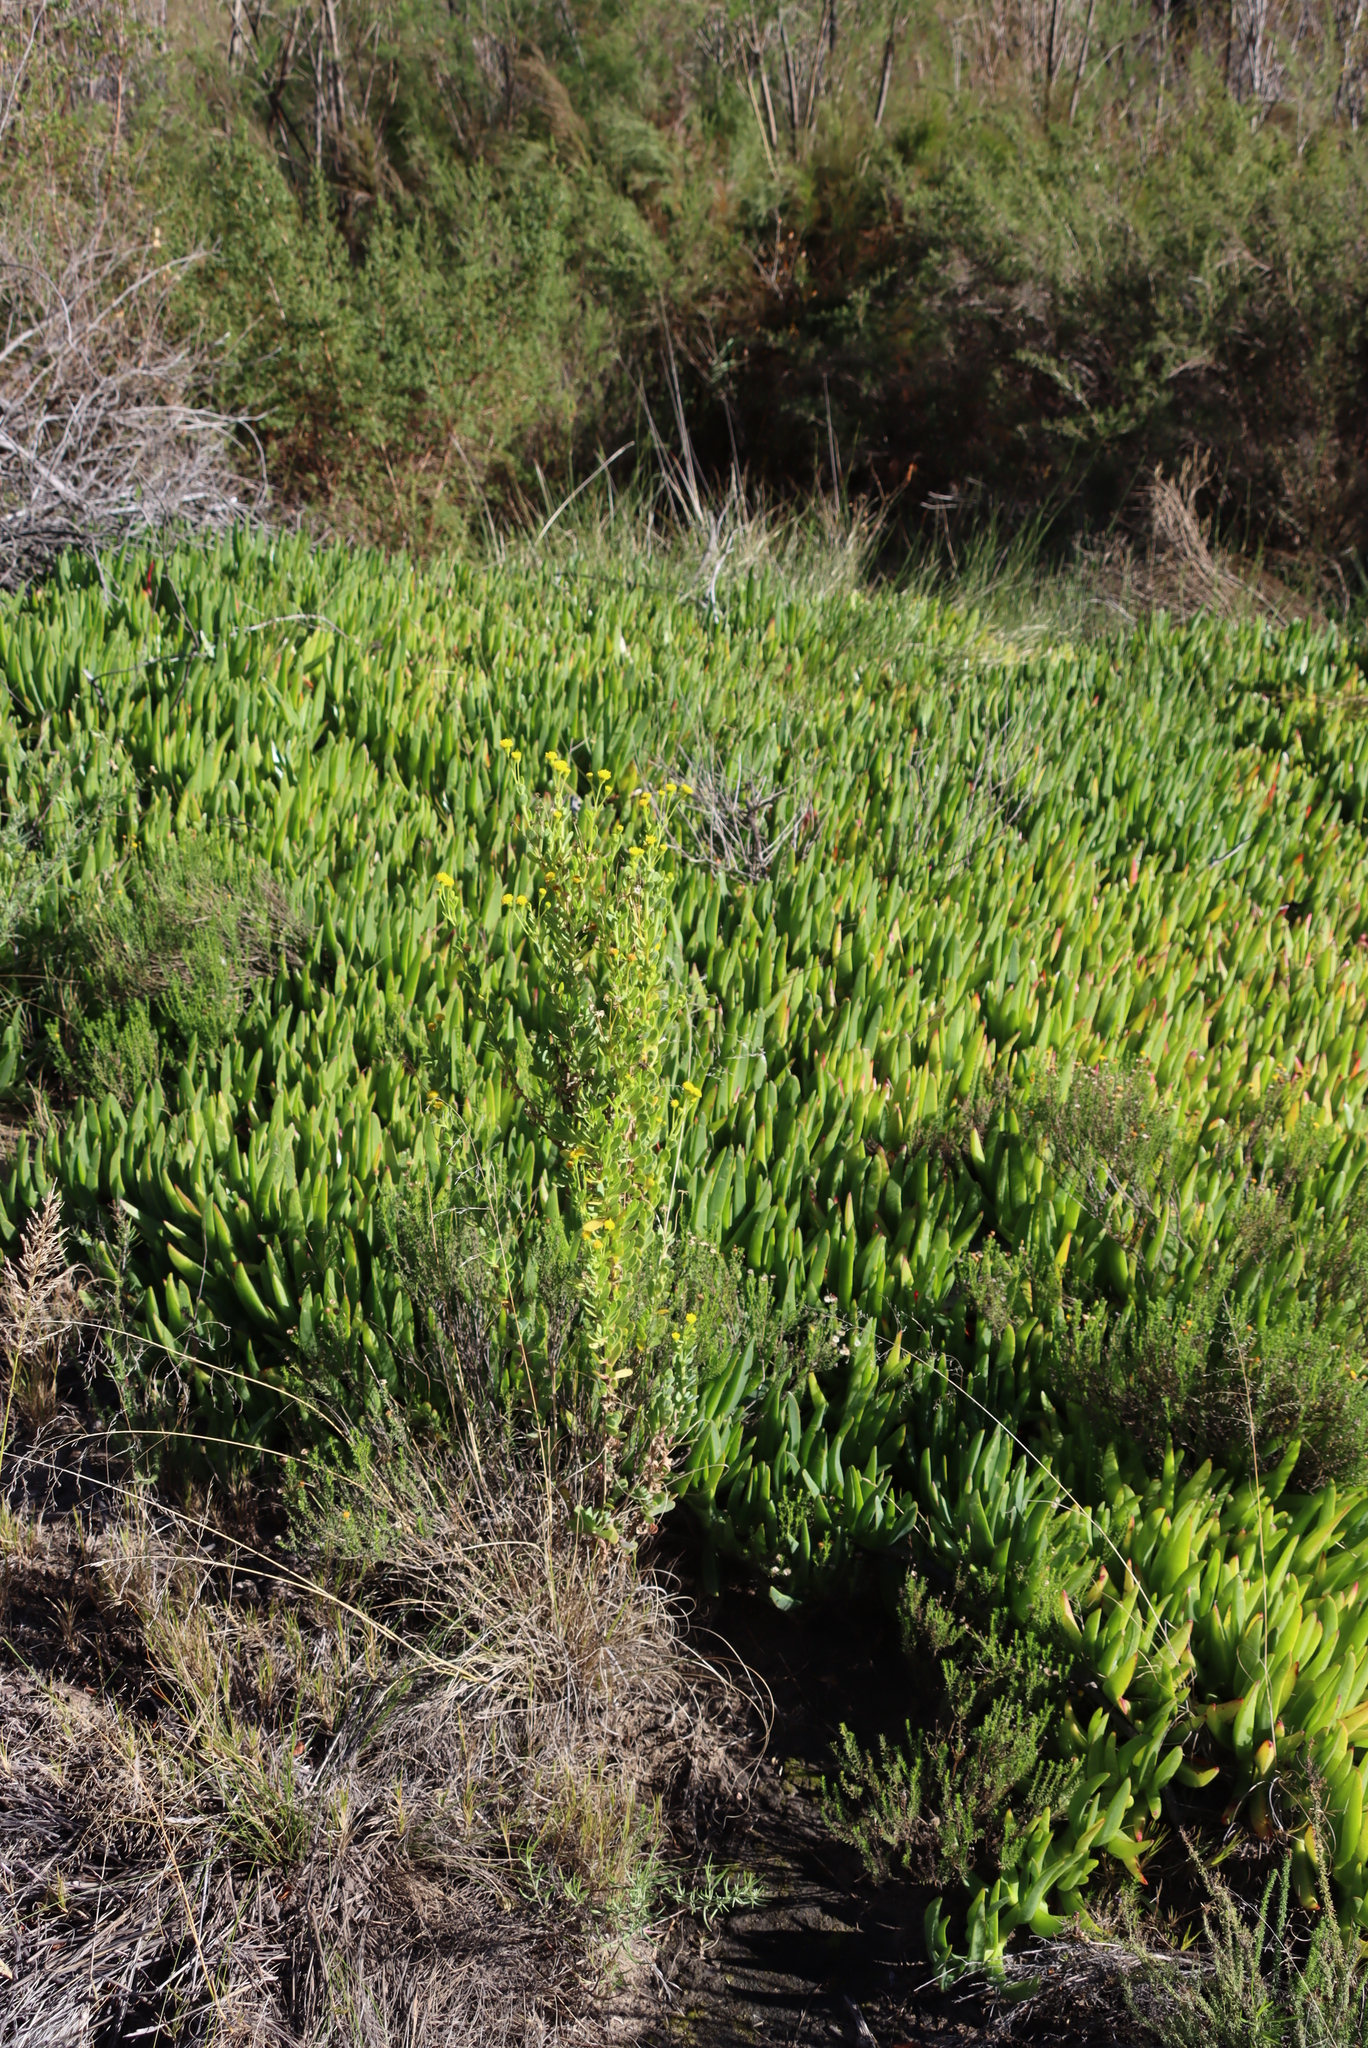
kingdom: Plantae
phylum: Tracheophyta
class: Magnoliopsida
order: Caryophyllales
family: Aizoaceae
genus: Carpobrotus
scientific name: Carpobrotus edulis
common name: Hottentot-fig
